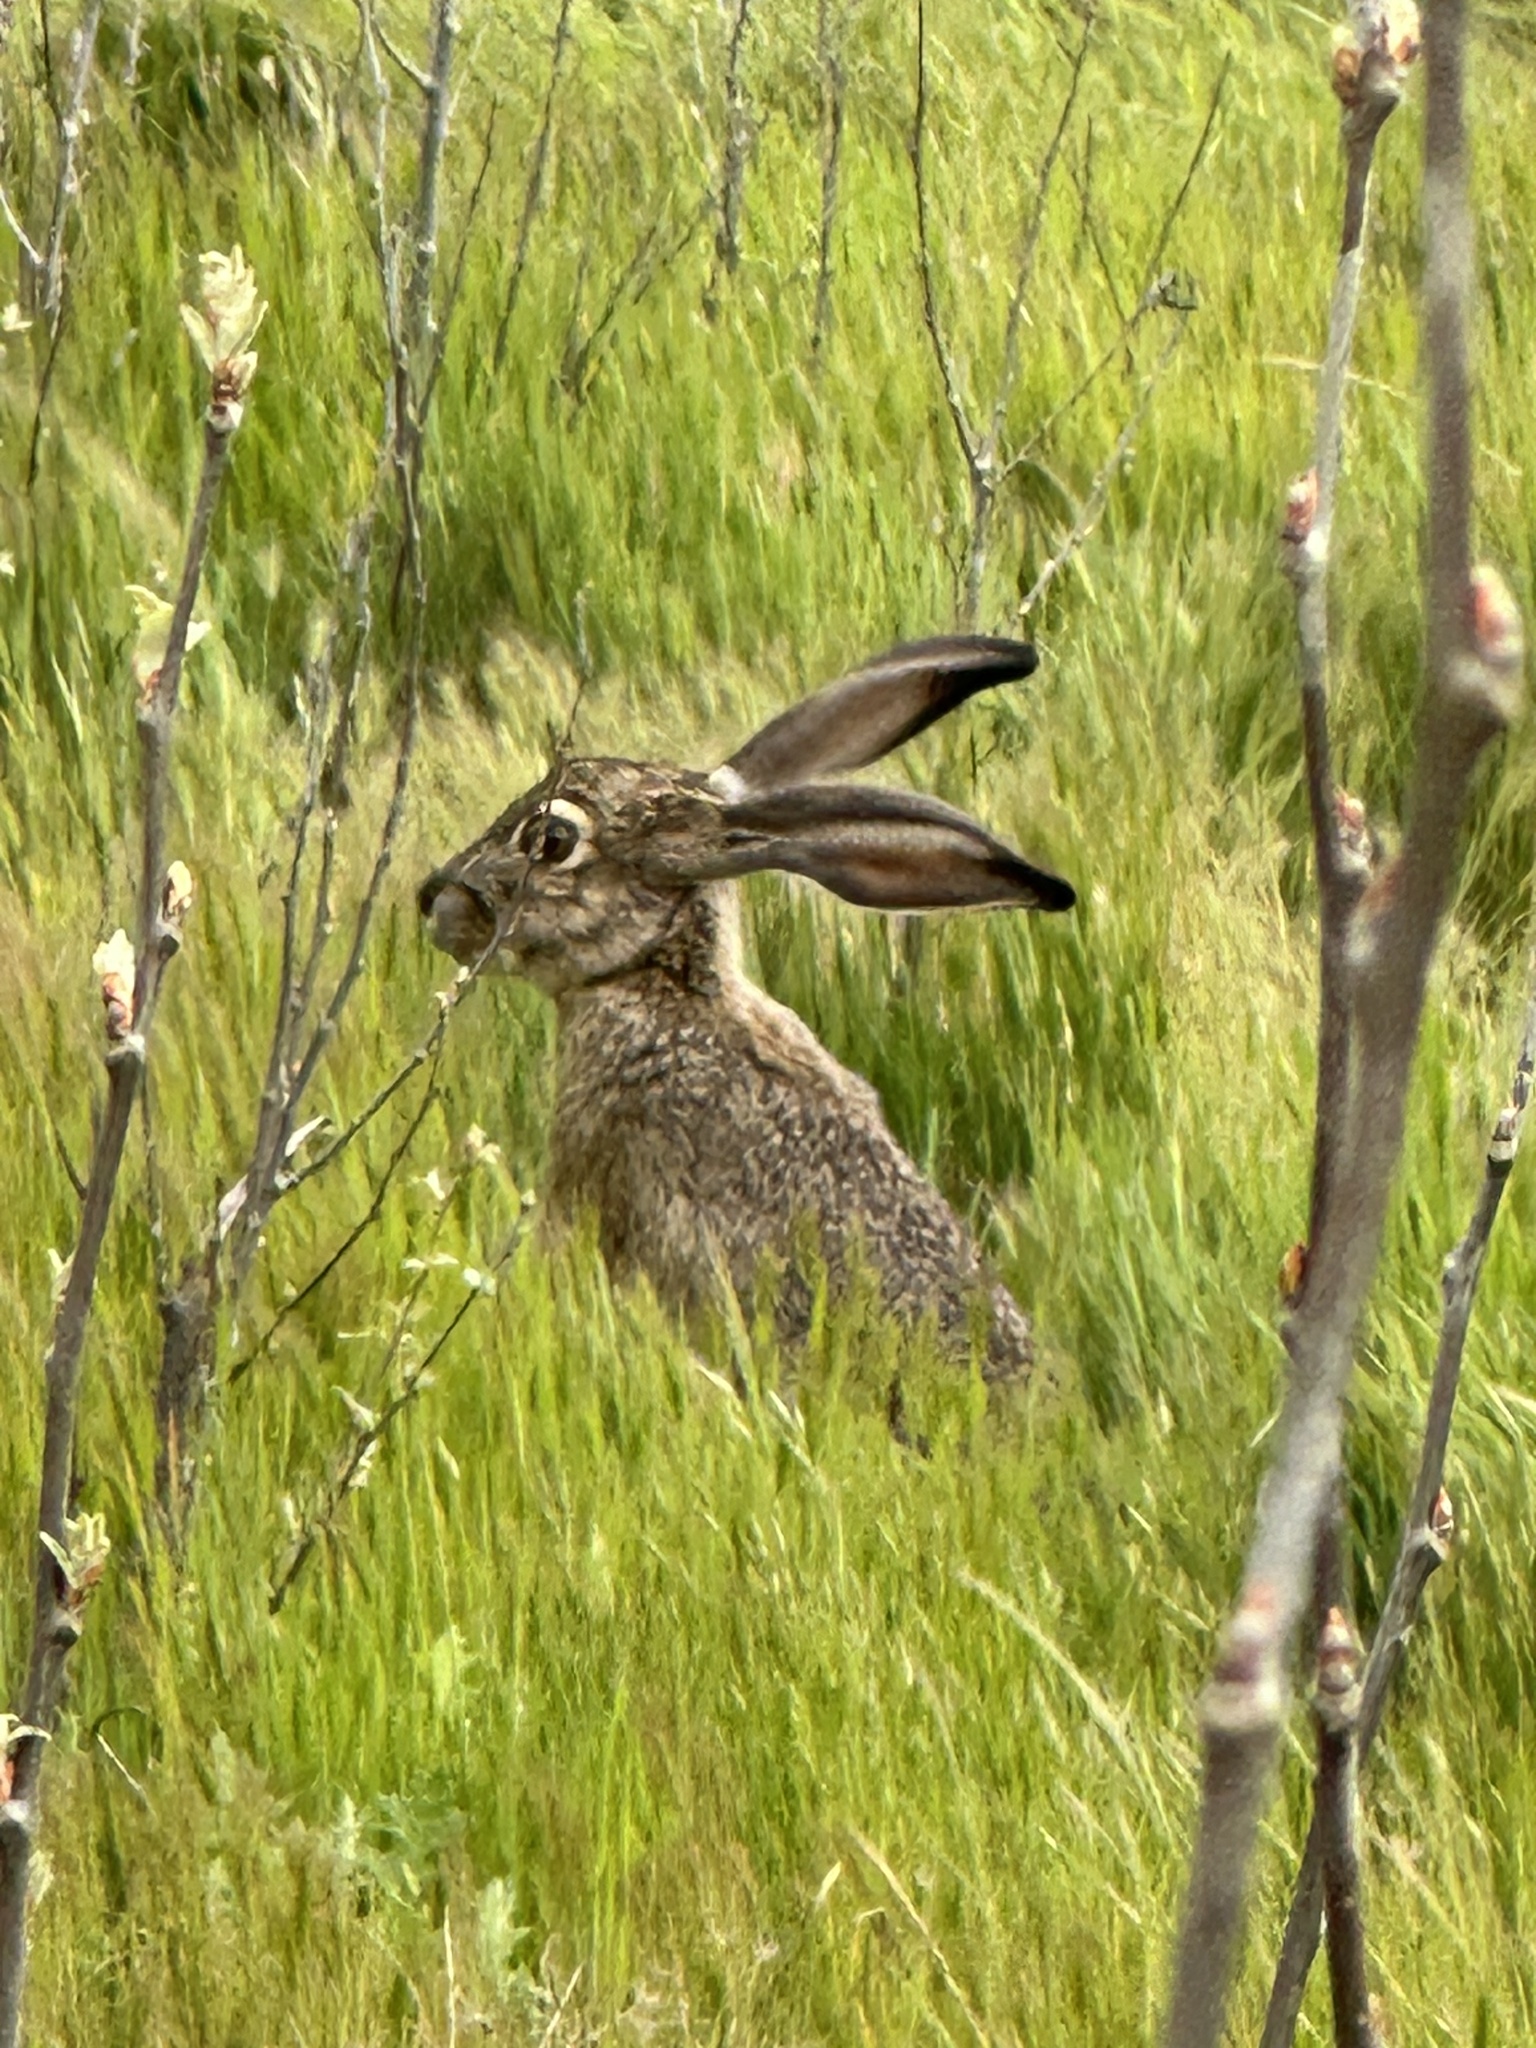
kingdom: Animalia
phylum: Chordata
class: Mammalia
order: Lagomorpha
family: Leporidae
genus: Lepus
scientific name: Lepus californicus
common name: Black-tailed jackrabbit
